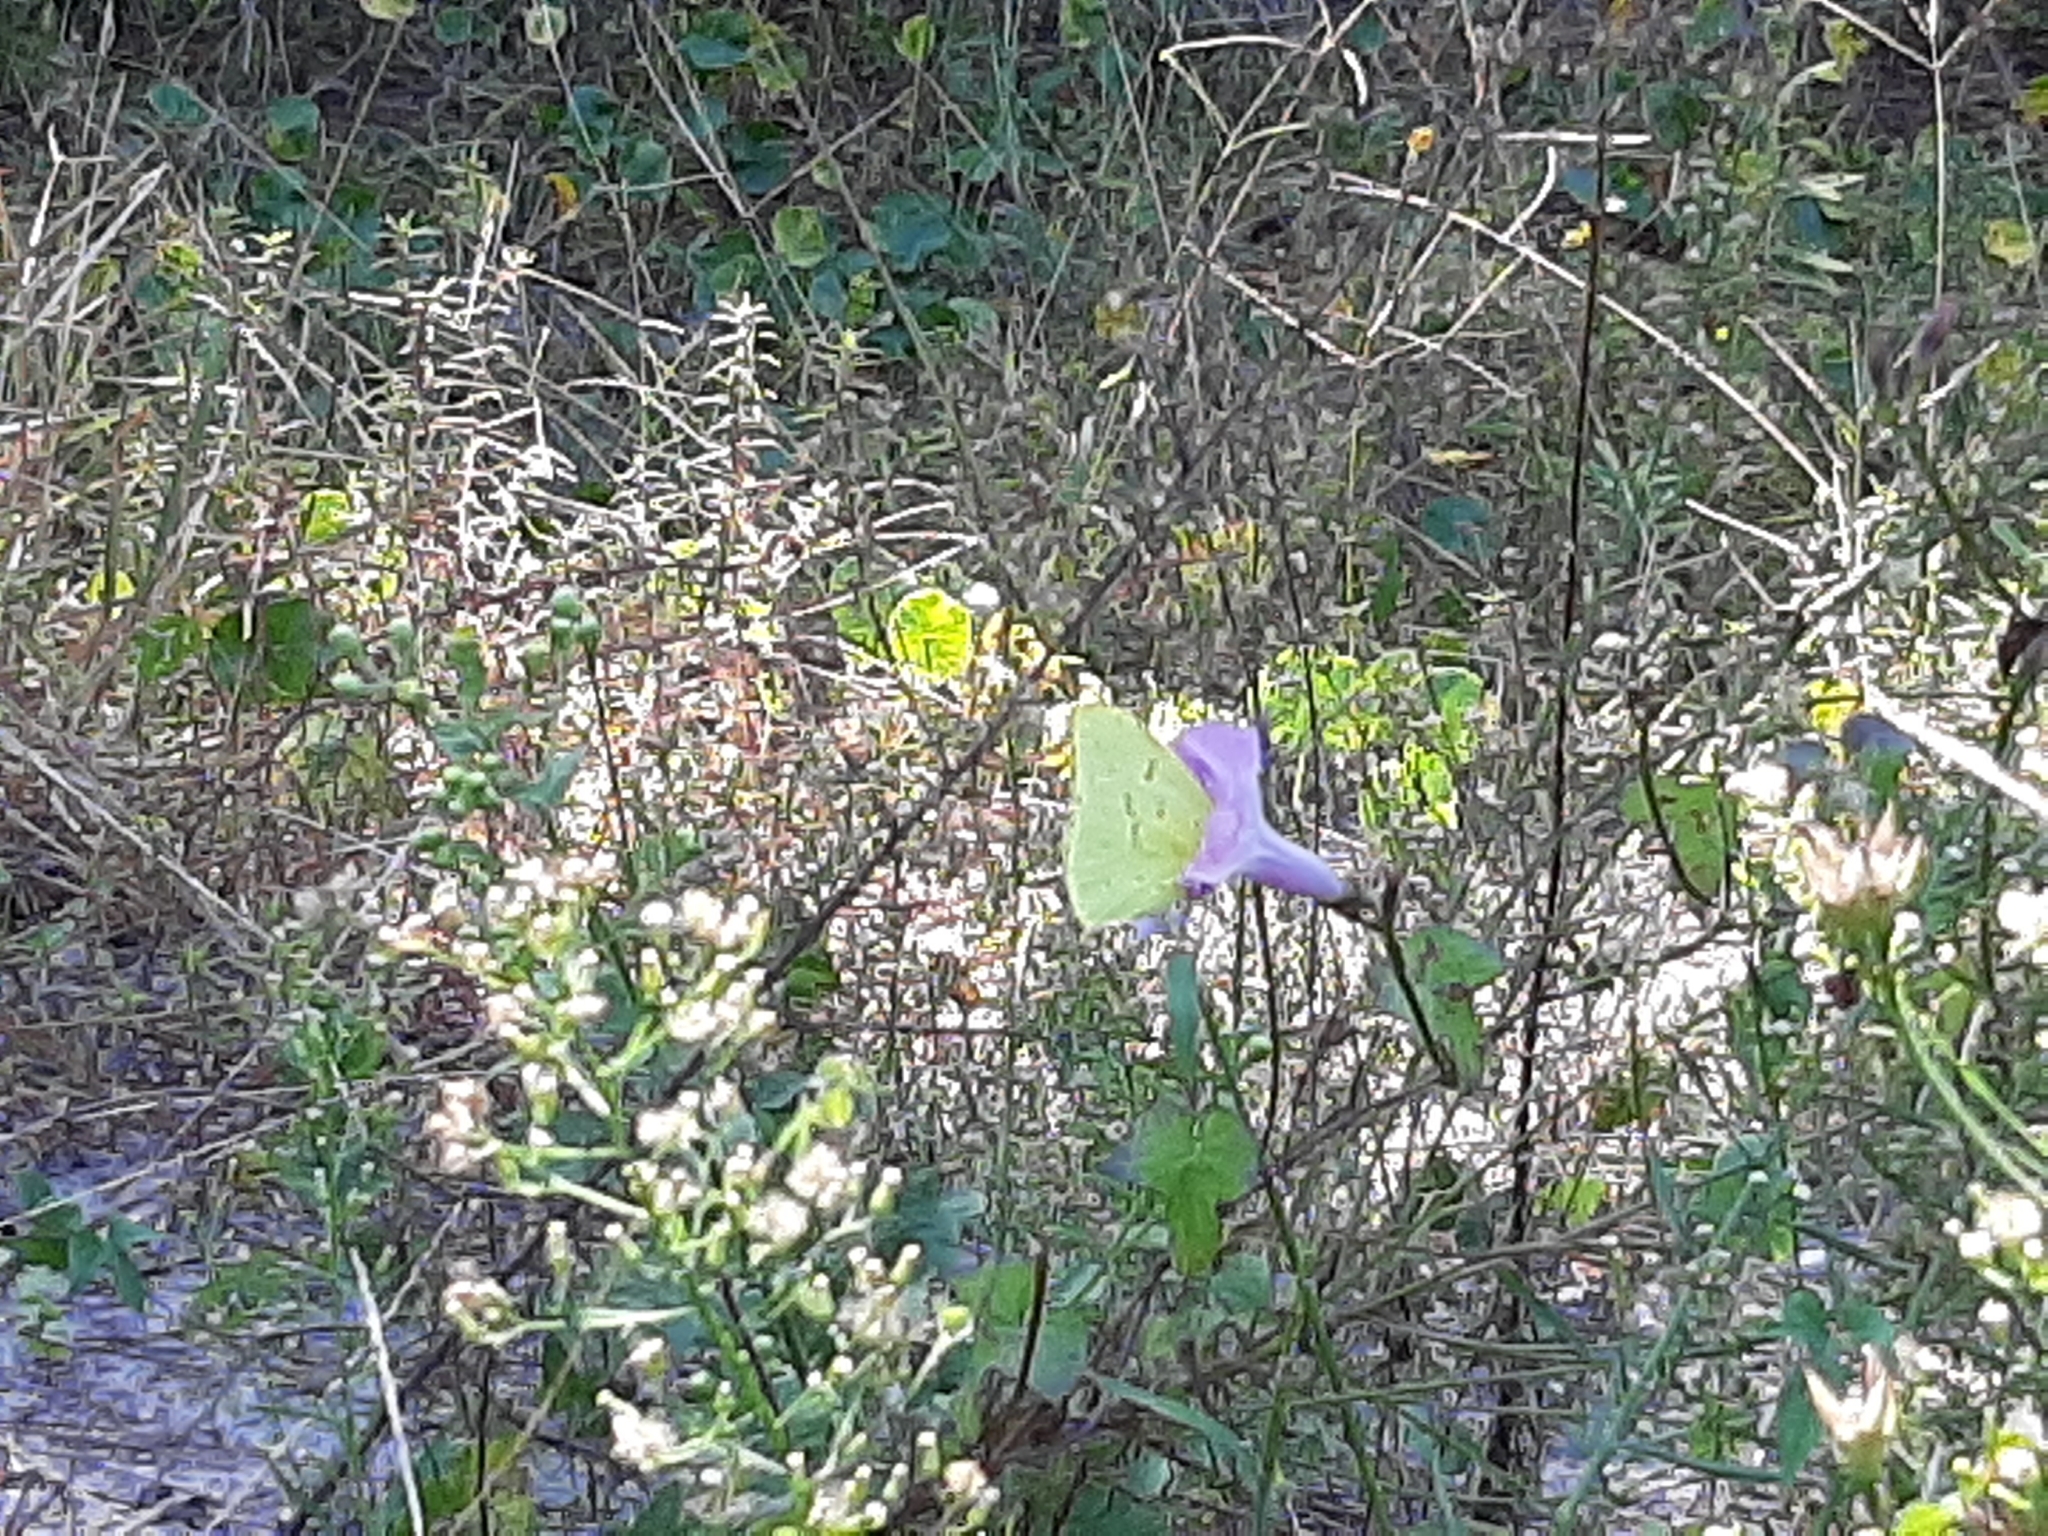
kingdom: Animalia
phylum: Arthropoda
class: Insecta
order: Lepidoptera
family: Pieridae
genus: Phoebis
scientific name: Phoebis sennae
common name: Cloudless sulphur
